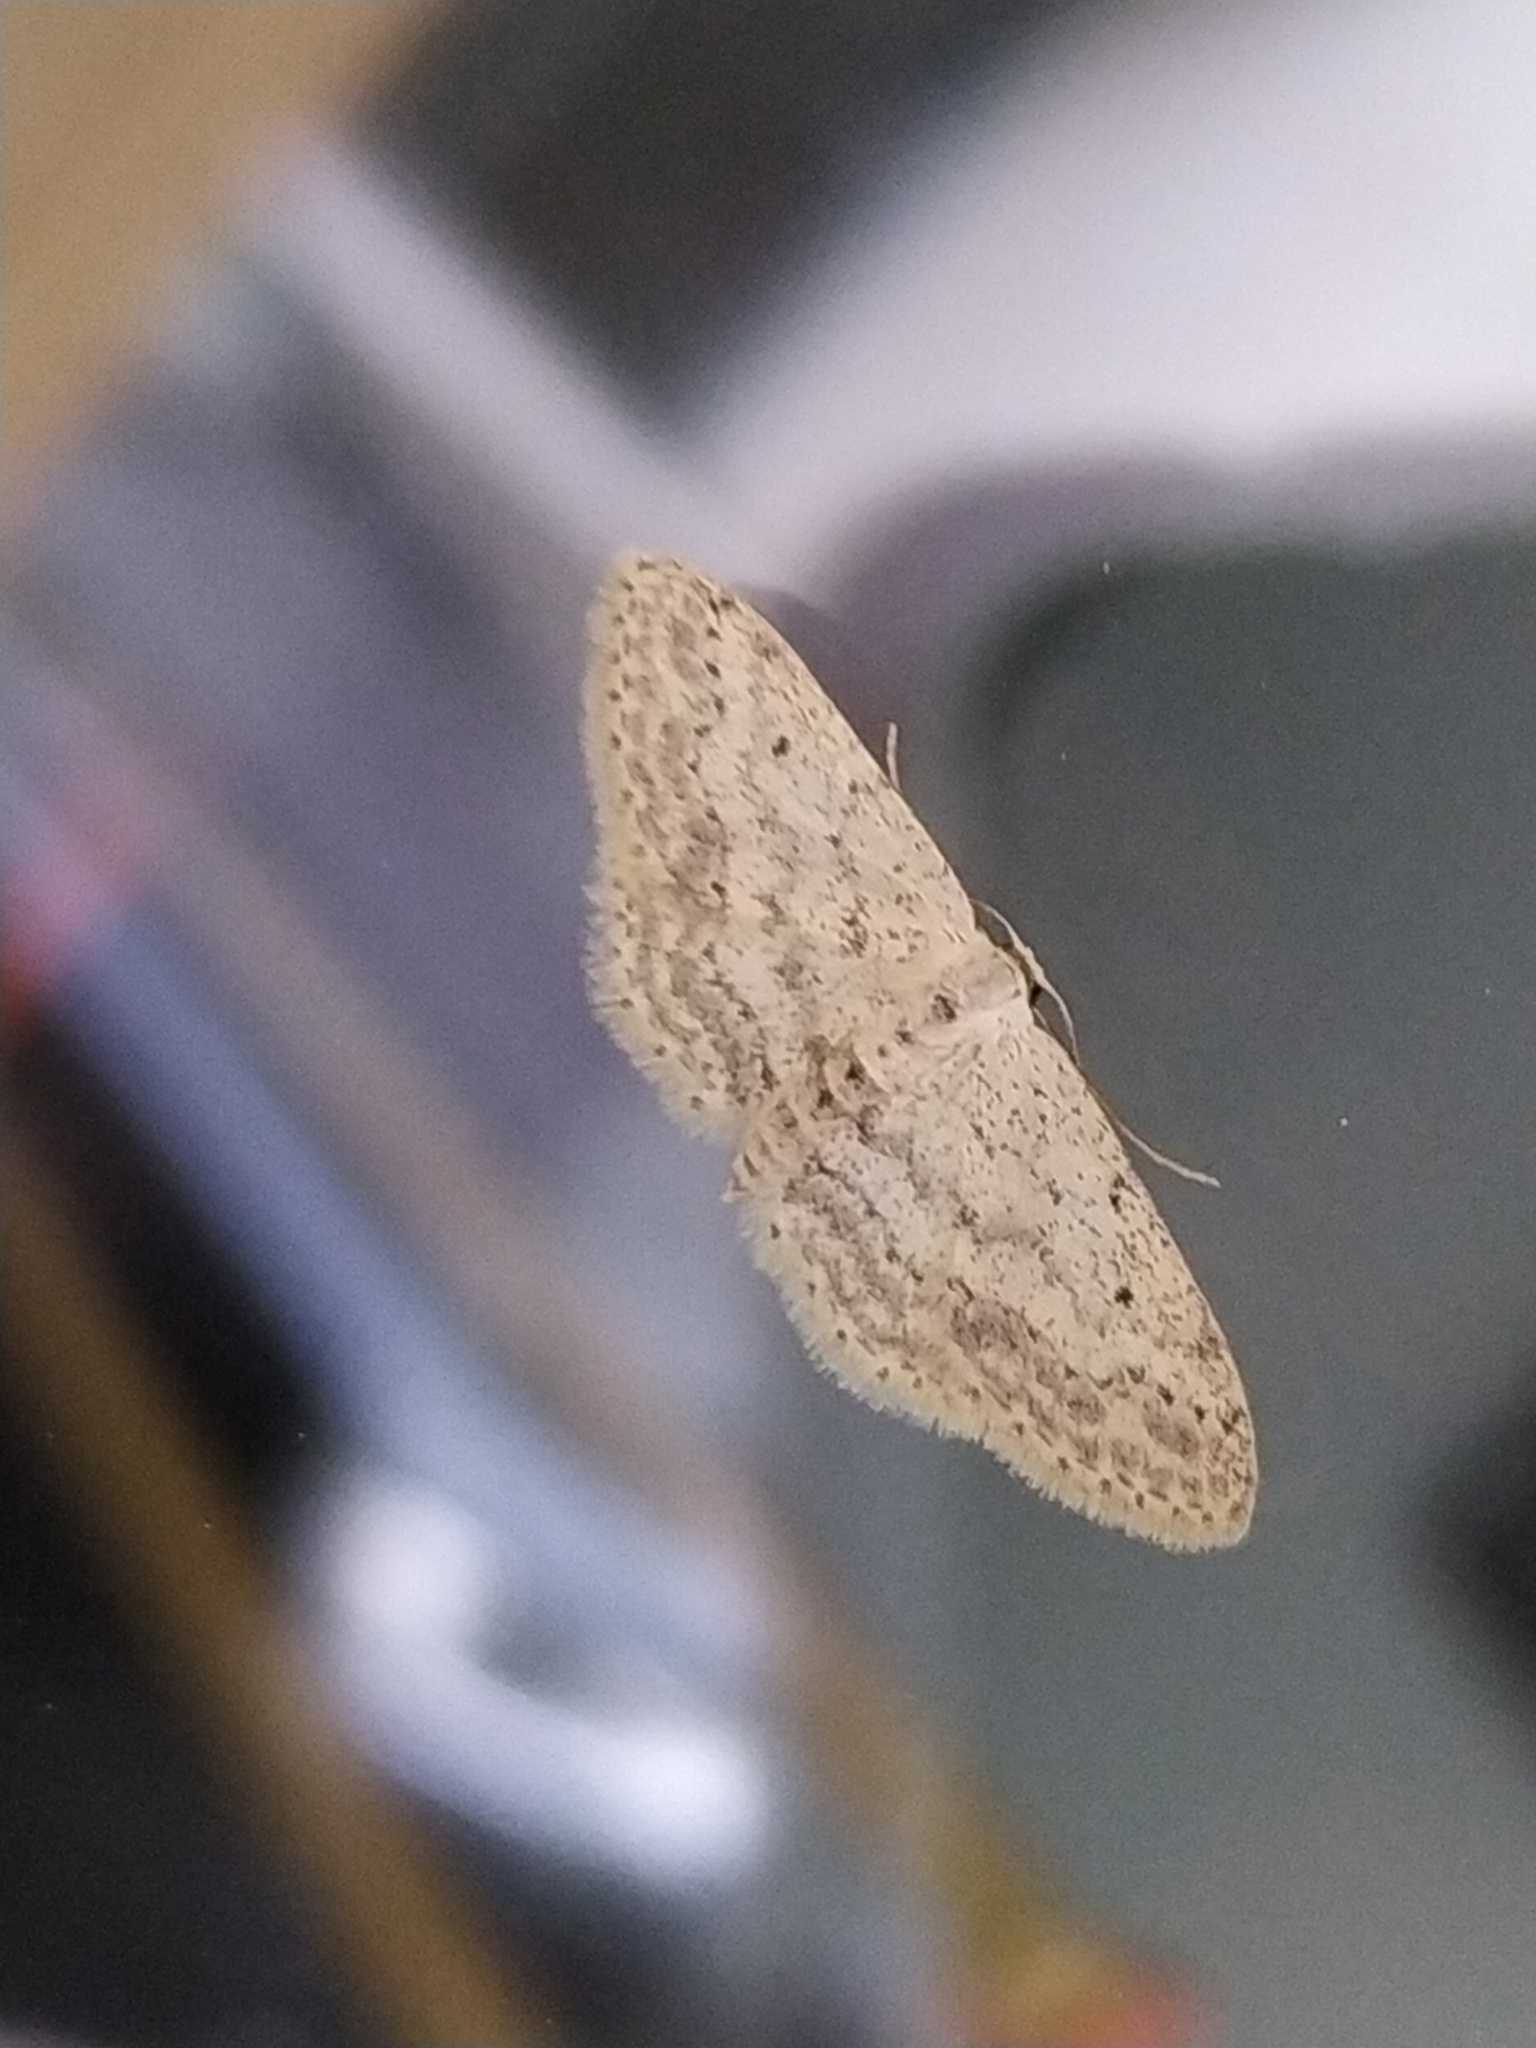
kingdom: Animalia
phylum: Arthropoda
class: Insecta
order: Lepidoptera
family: Geometridae
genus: Idaea
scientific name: Idaea seriata
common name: Small dusty wave
